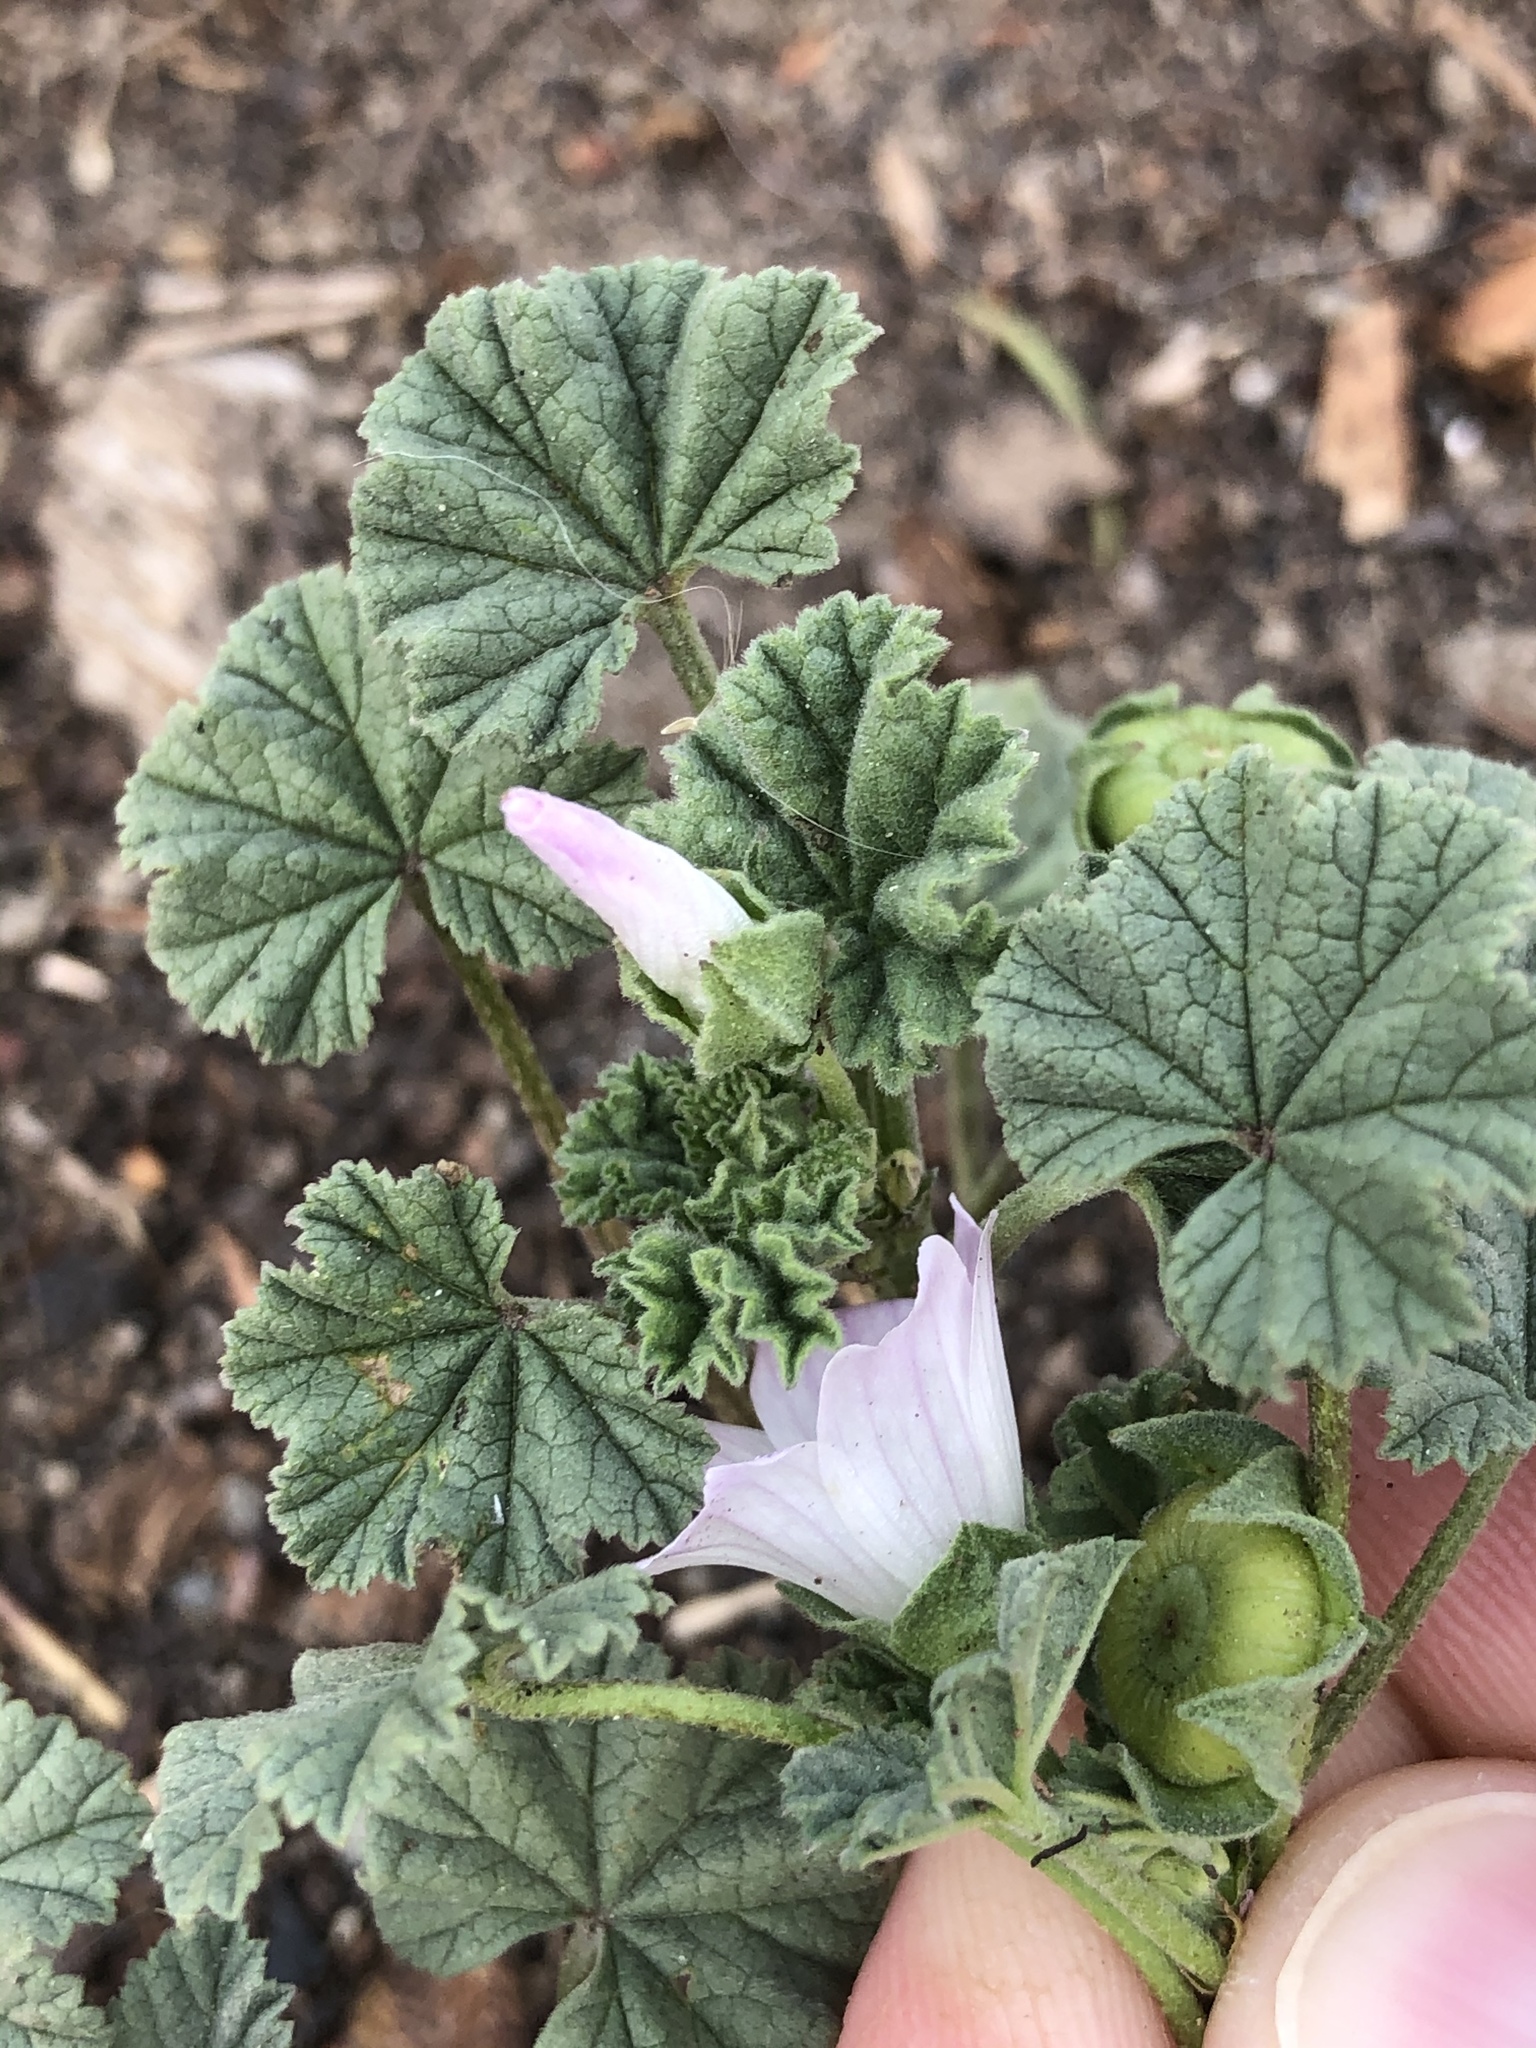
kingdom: Plantae
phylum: Tracheophyta
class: Magnoliopsida
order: Malvales
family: Malvaceae
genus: Malva
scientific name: Malva neglecta
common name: Common mallow
